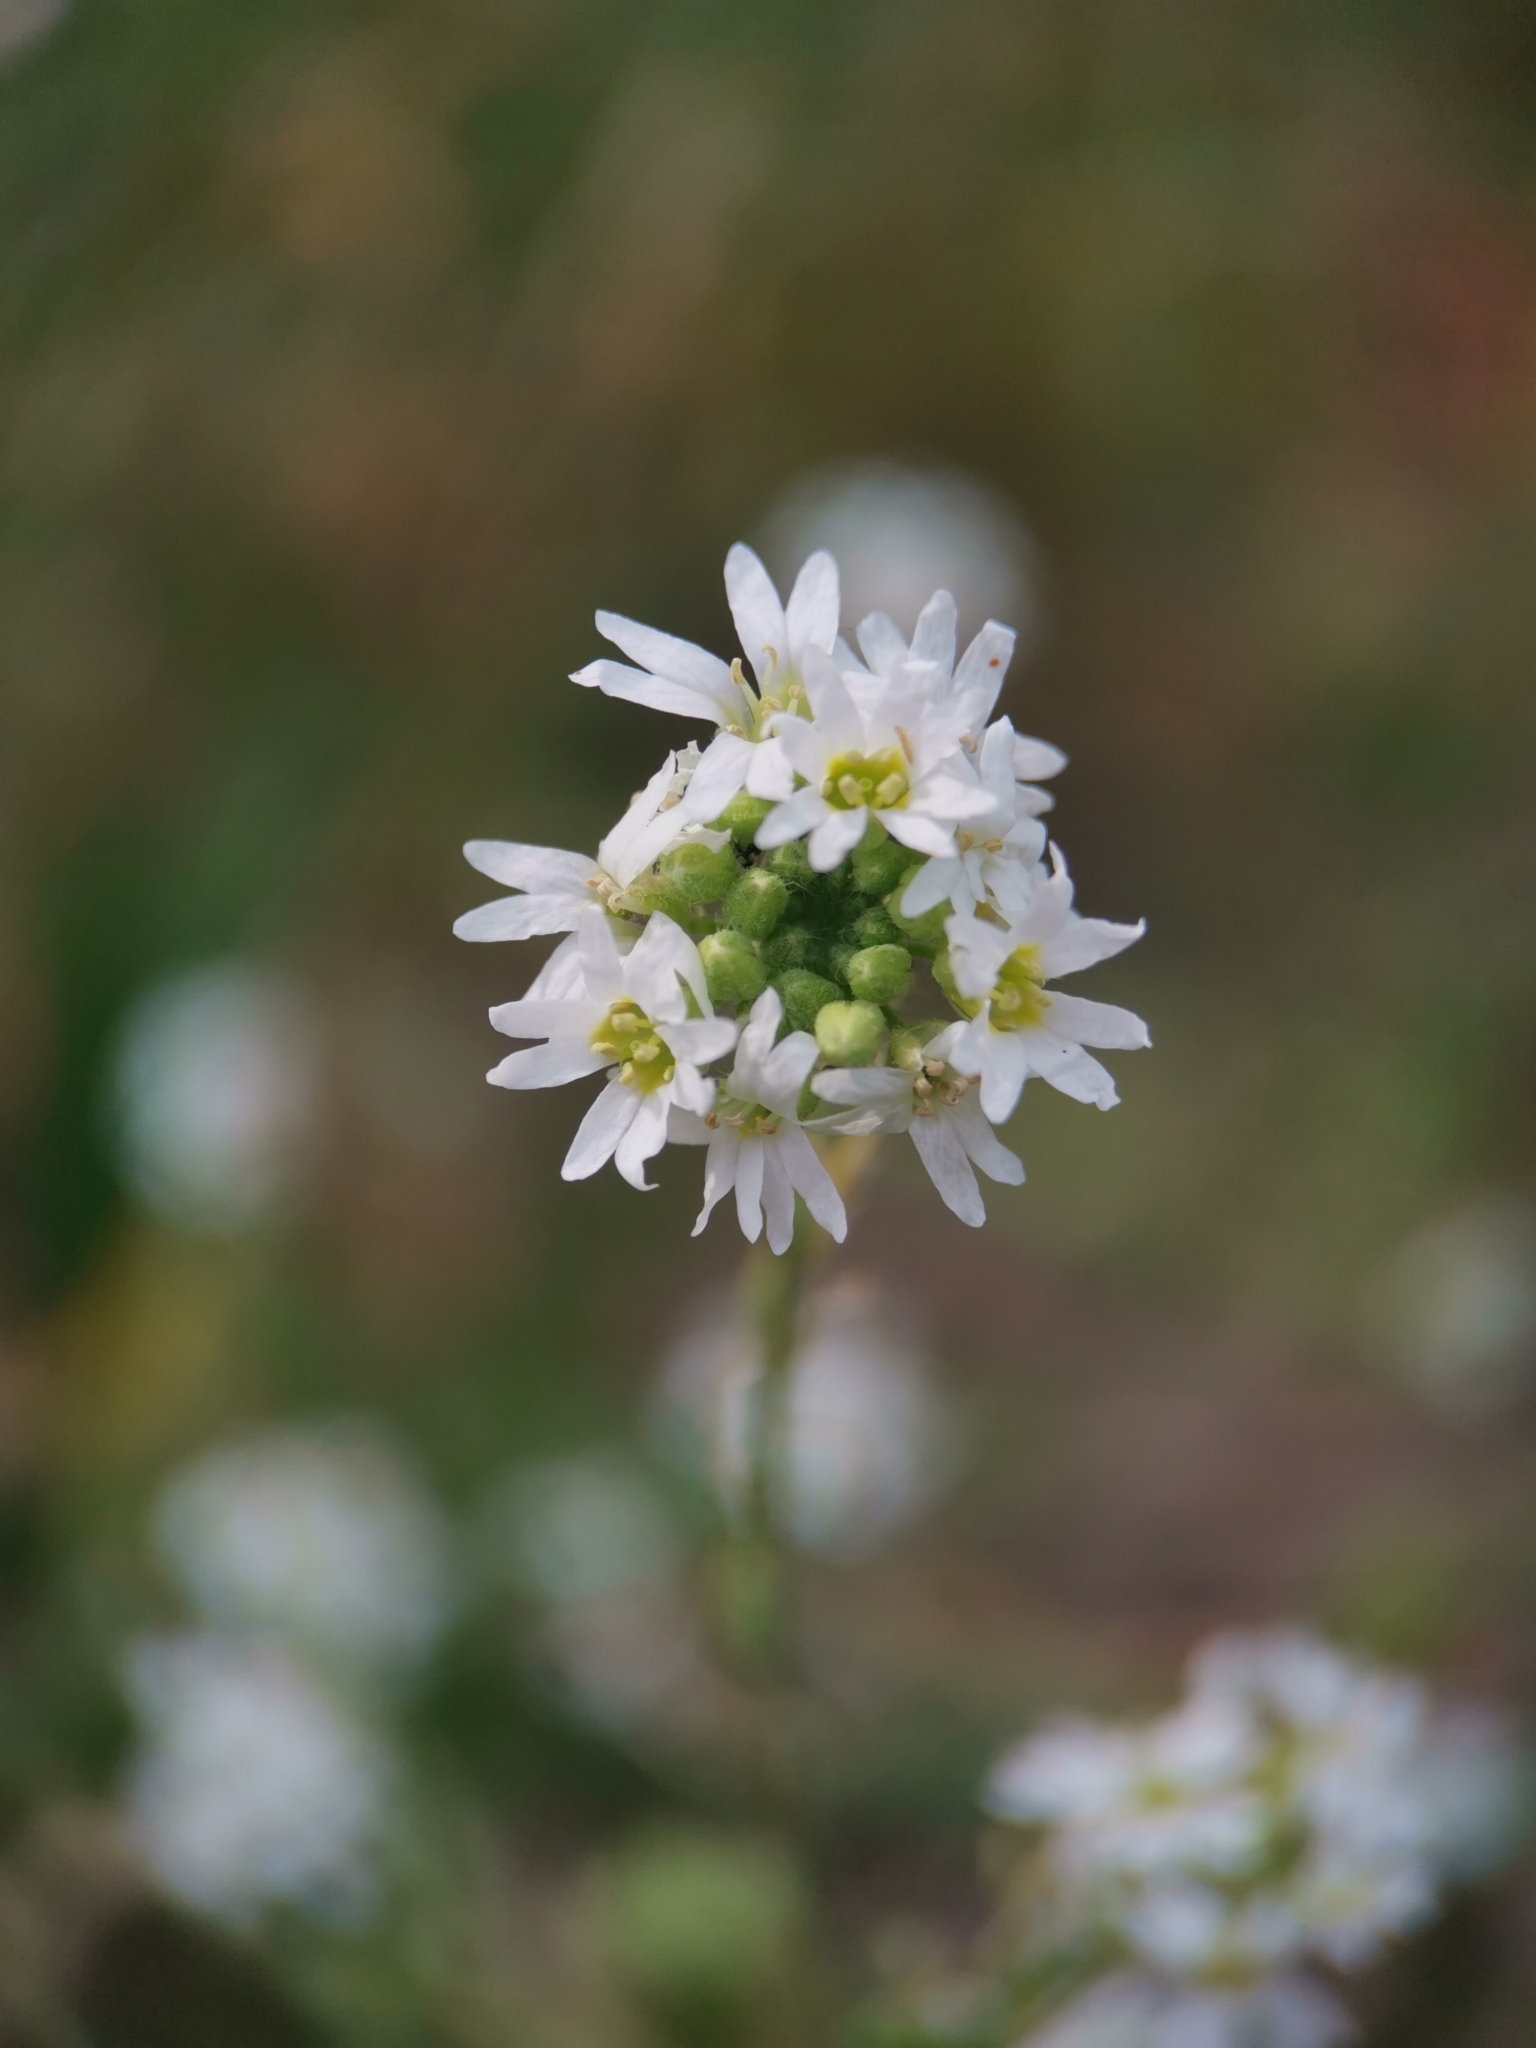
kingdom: Plantae
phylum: Tracheophyta
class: Magnoliopsida
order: Brassicales
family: Brassicaceae
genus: Berteroa
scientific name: Berteroa incana
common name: Hoary alison
